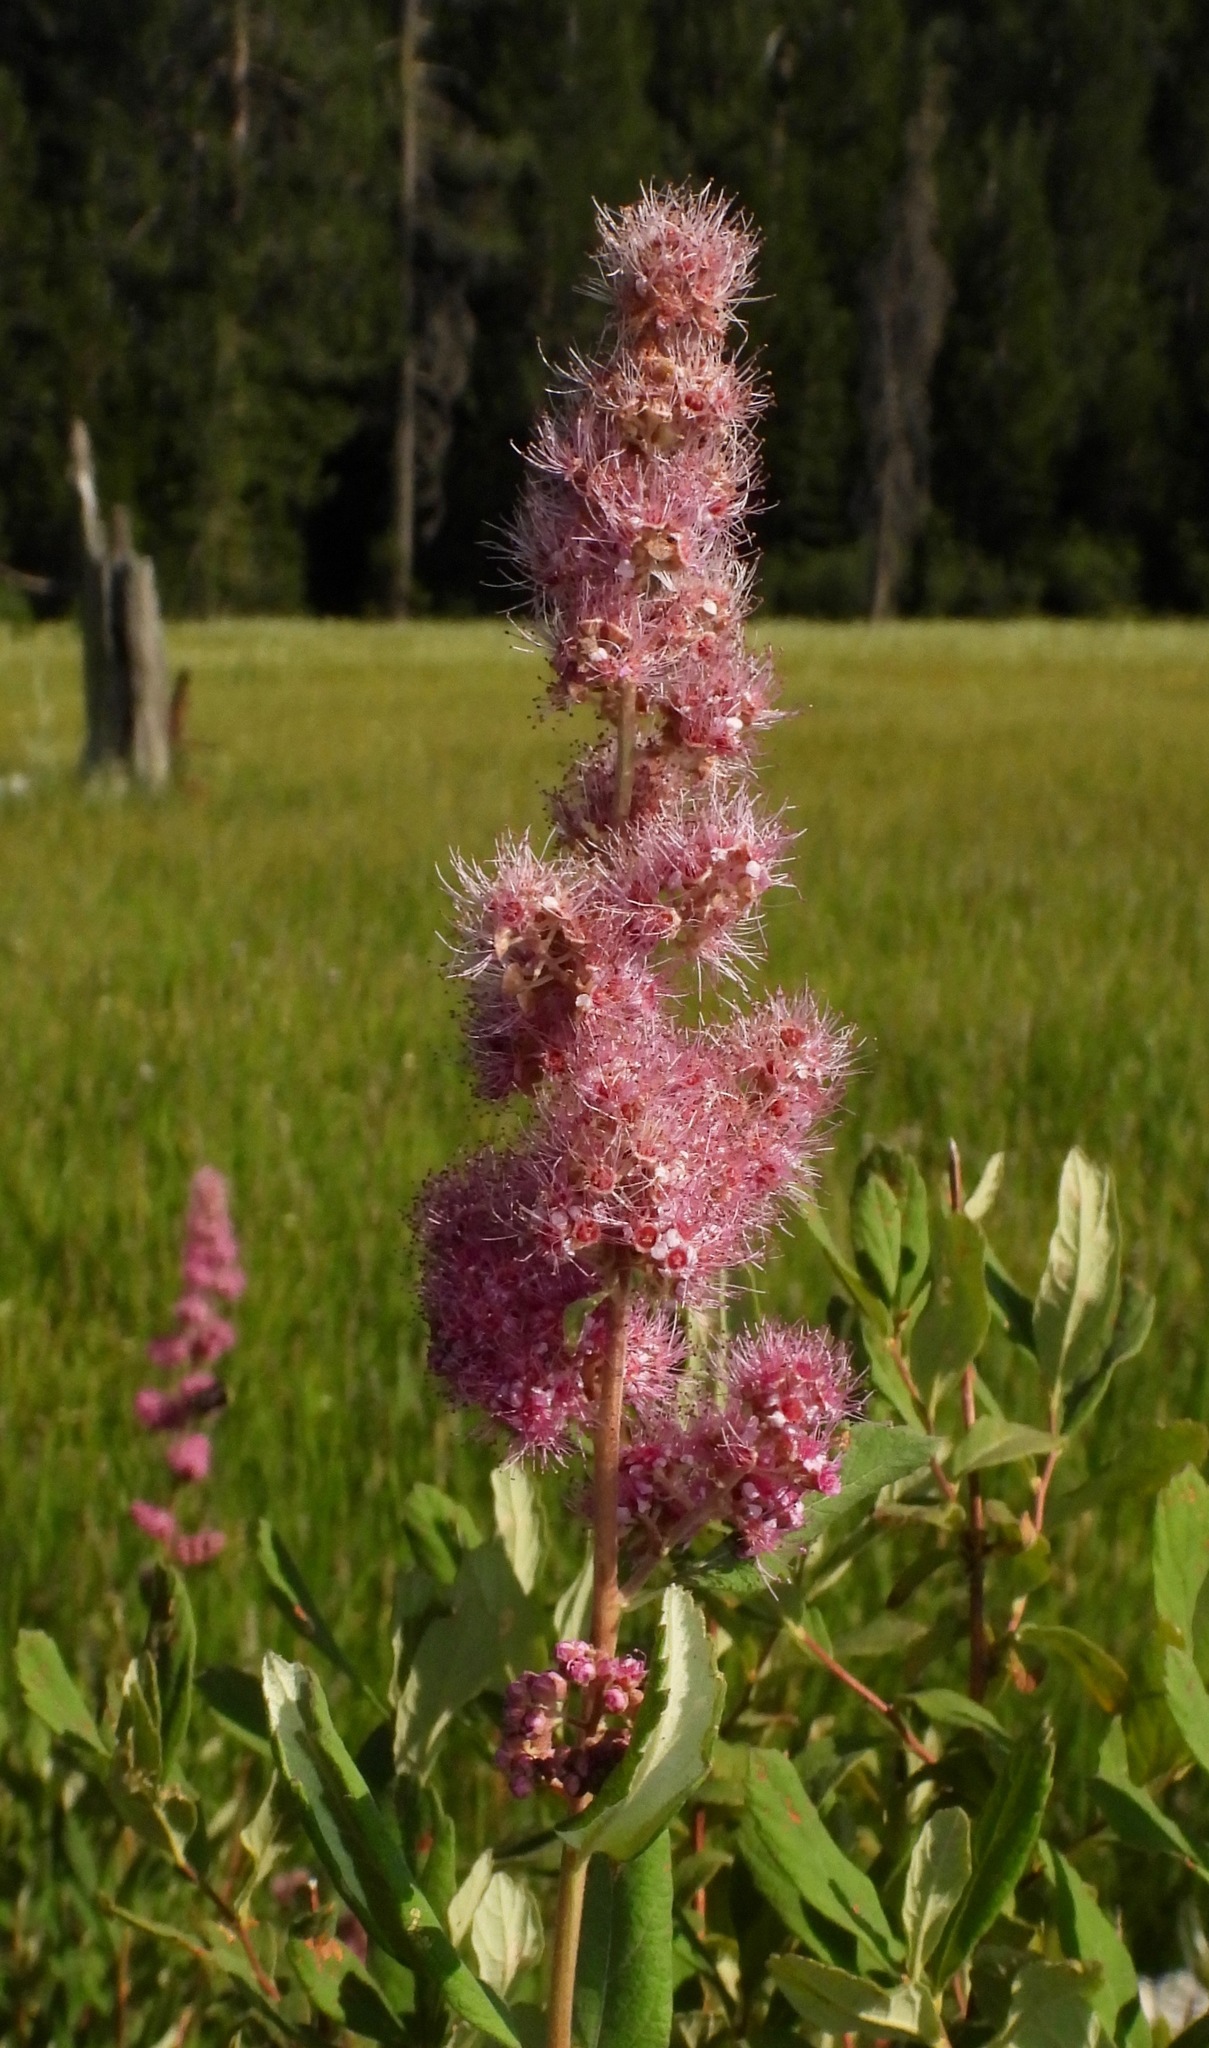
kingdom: Plantae
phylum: Tracheophyta
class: Magnoliopsida
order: Rosales
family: Rosaceae
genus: Spiraea
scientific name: Spiraea douglasii
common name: Steeplebush
